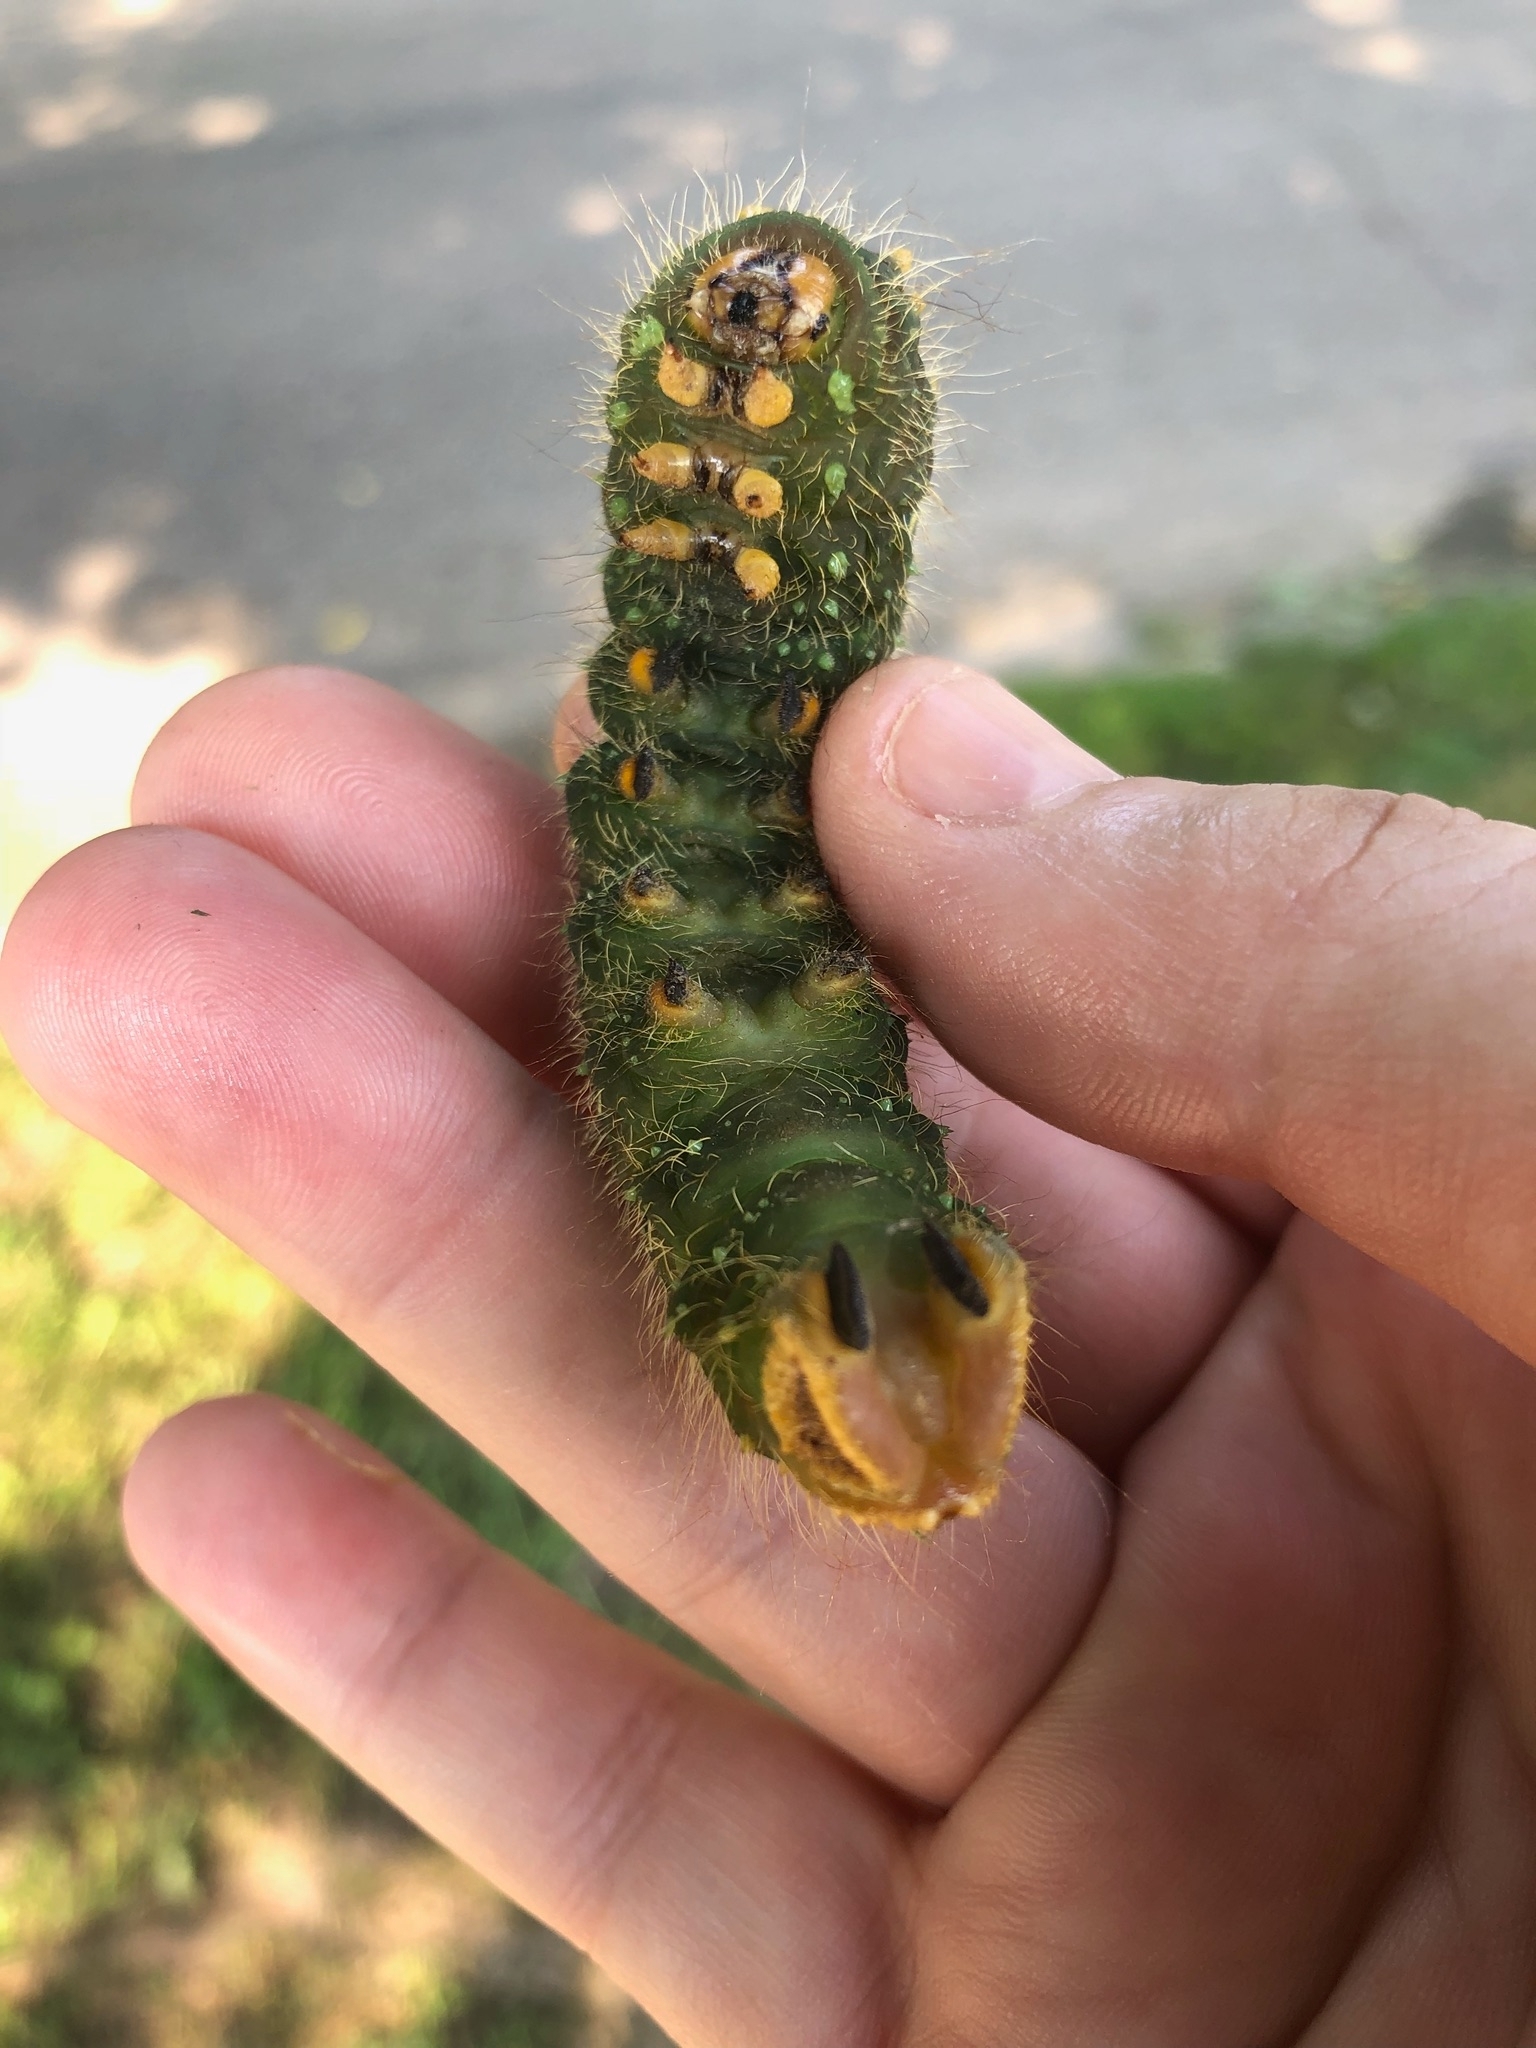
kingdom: Animalia
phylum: Arthropoda
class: Insecta
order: Lepidoptera
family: Saturniidae
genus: Eacles
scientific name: Eacles imperialis
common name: Imperial moth
